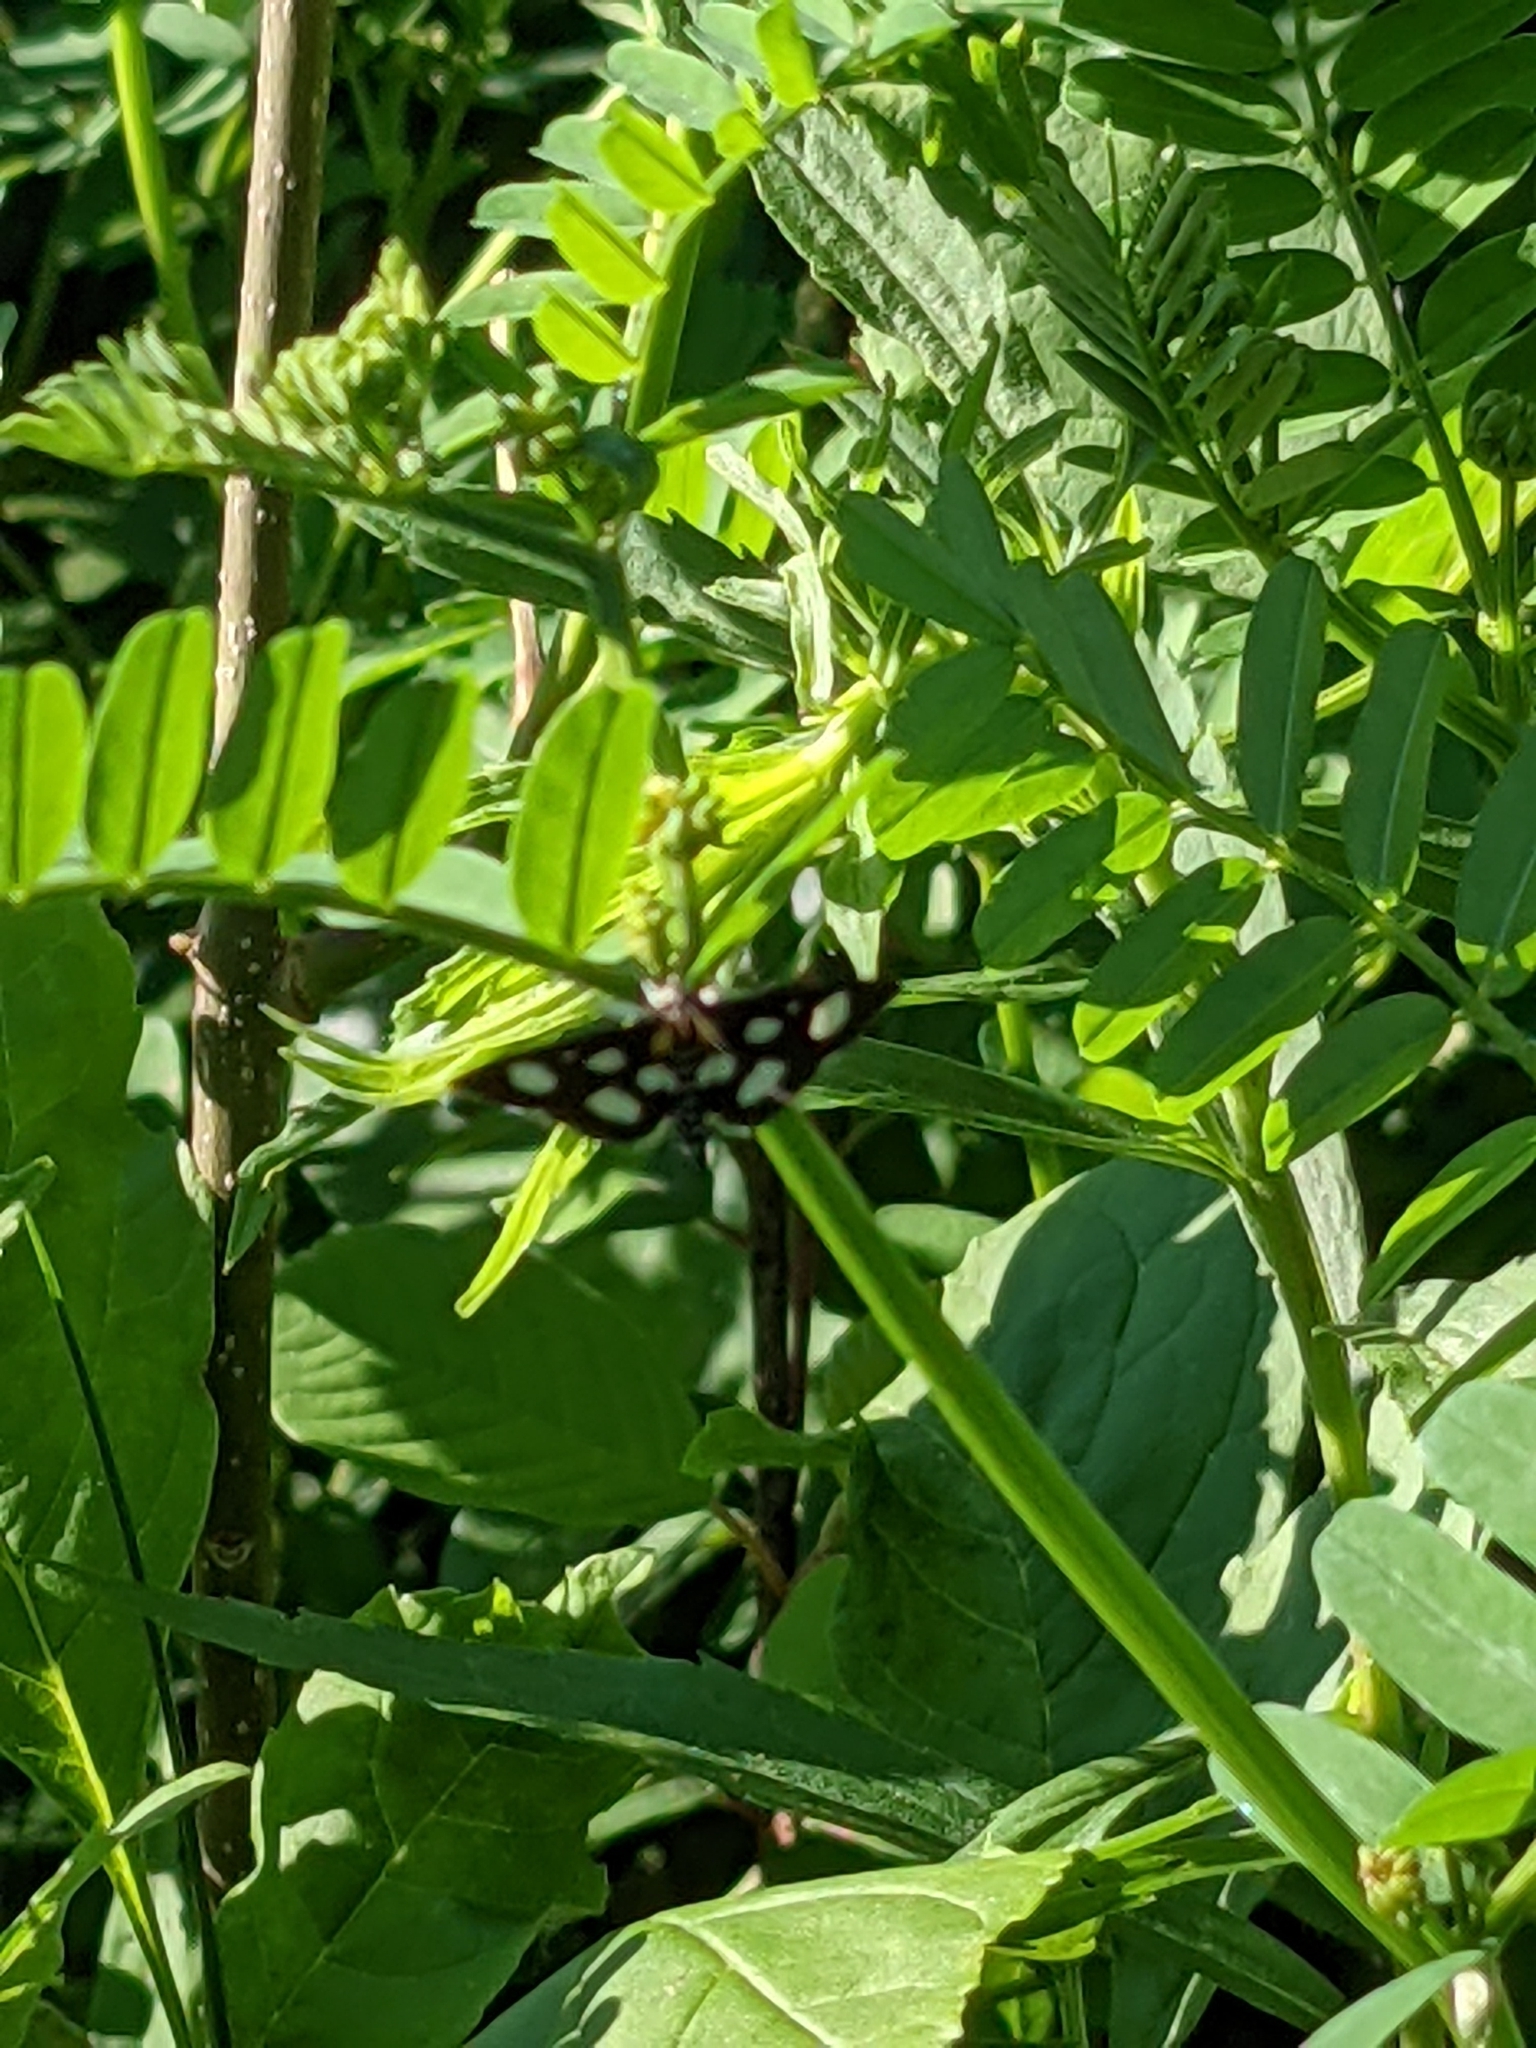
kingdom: Animalia
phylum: Arthropoda
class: Insecta
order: Lepidoptera
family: Crambidae
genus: Anania
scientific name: Anania funebris
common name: White-spotted sable moth
